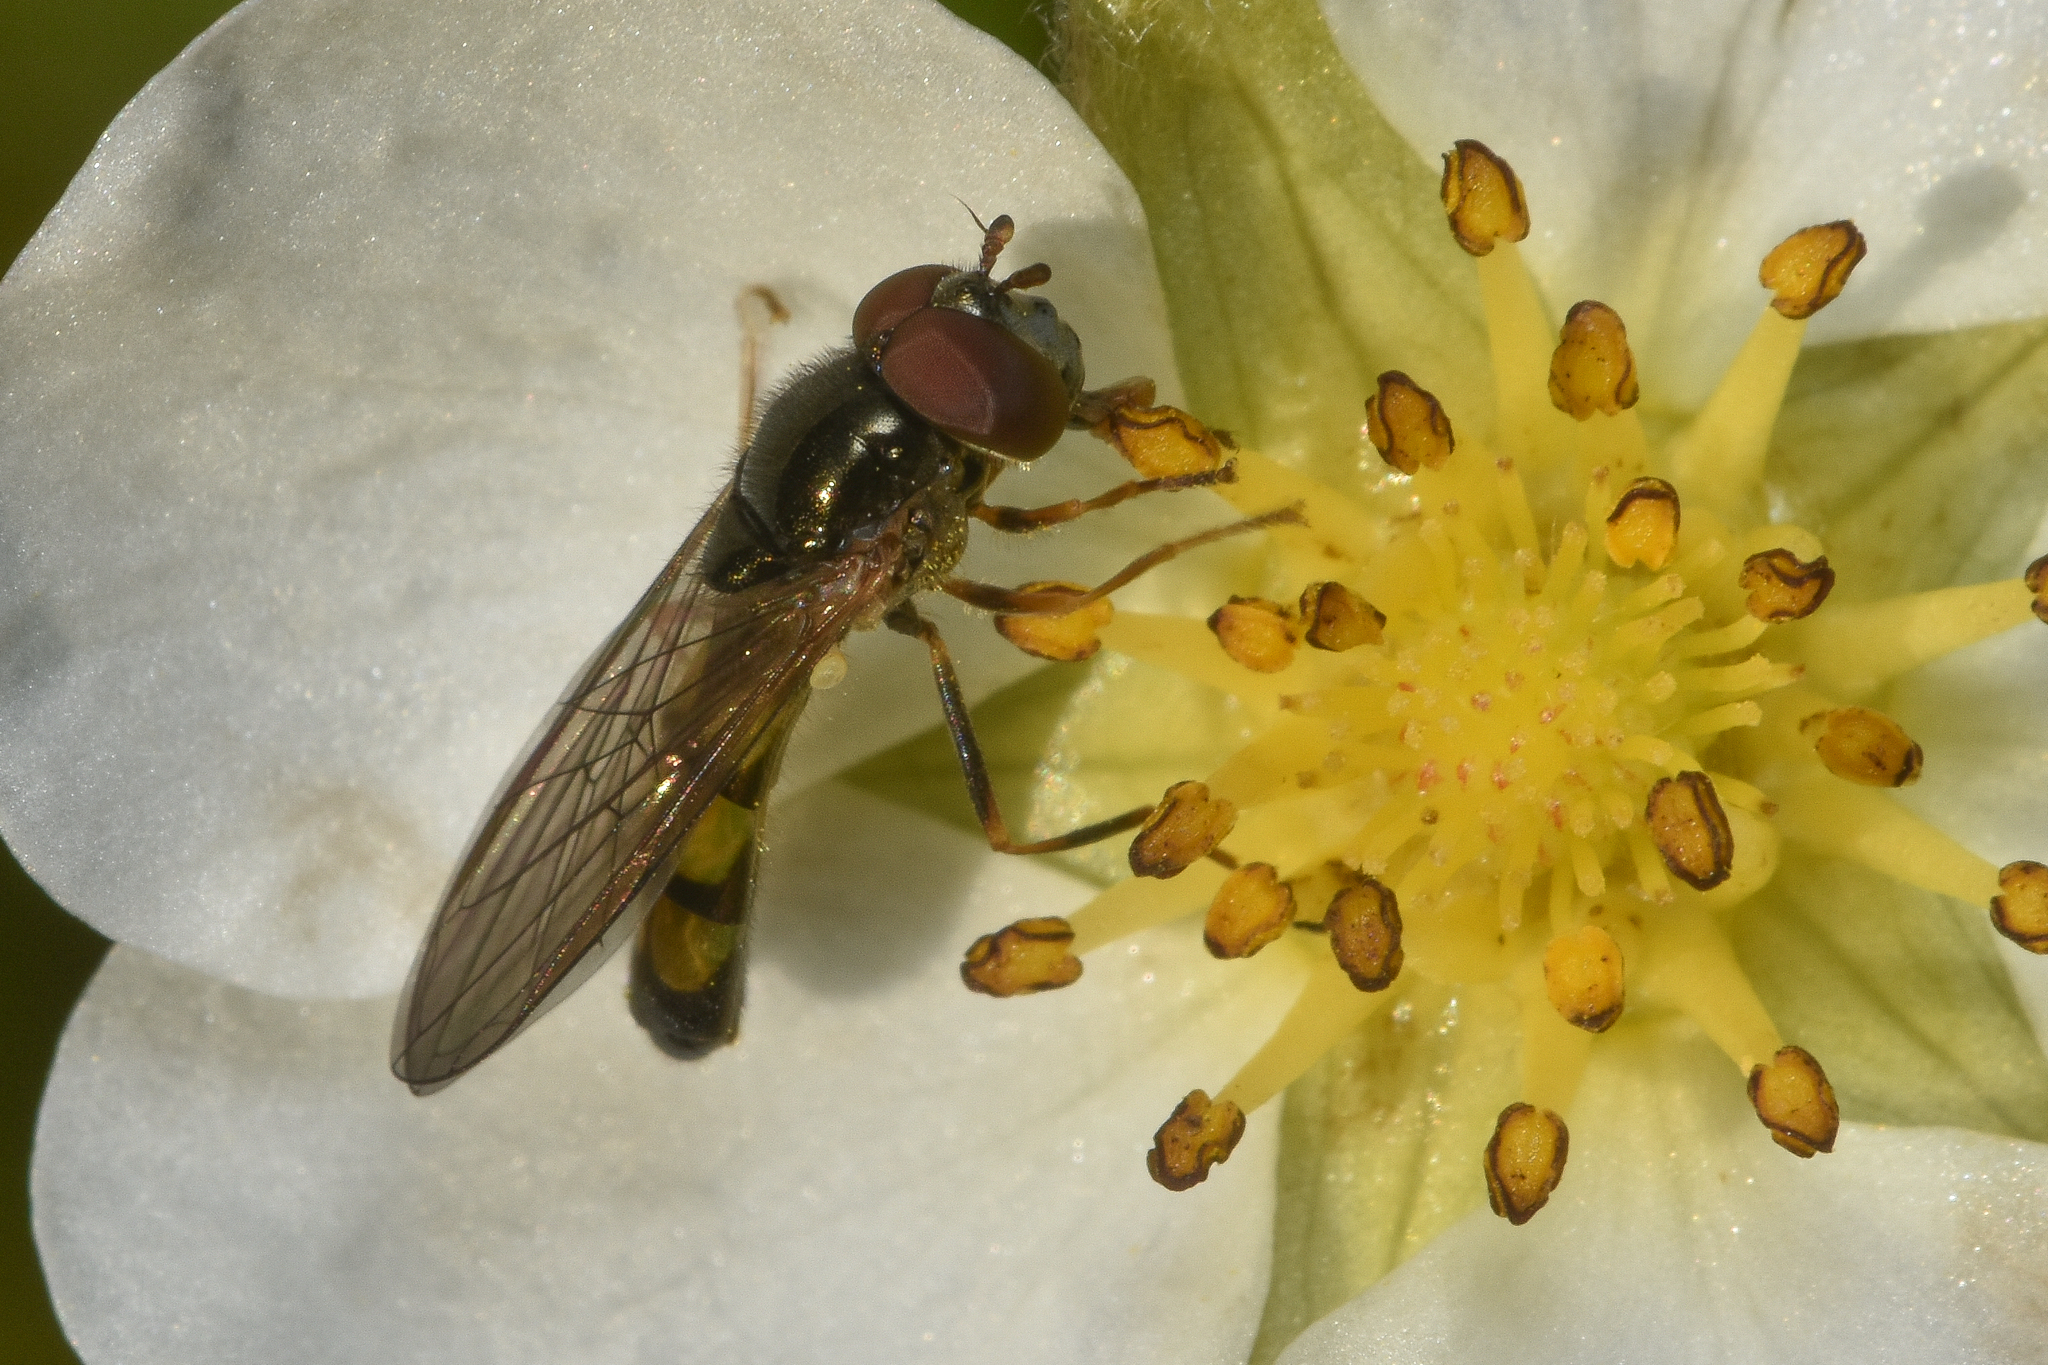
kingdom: Animalia
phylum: Arthropoda
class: Insecta
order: Diptera
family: Syrphidae
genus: Melanostoma
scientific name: Melanostoma mellina
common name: Hover fly
